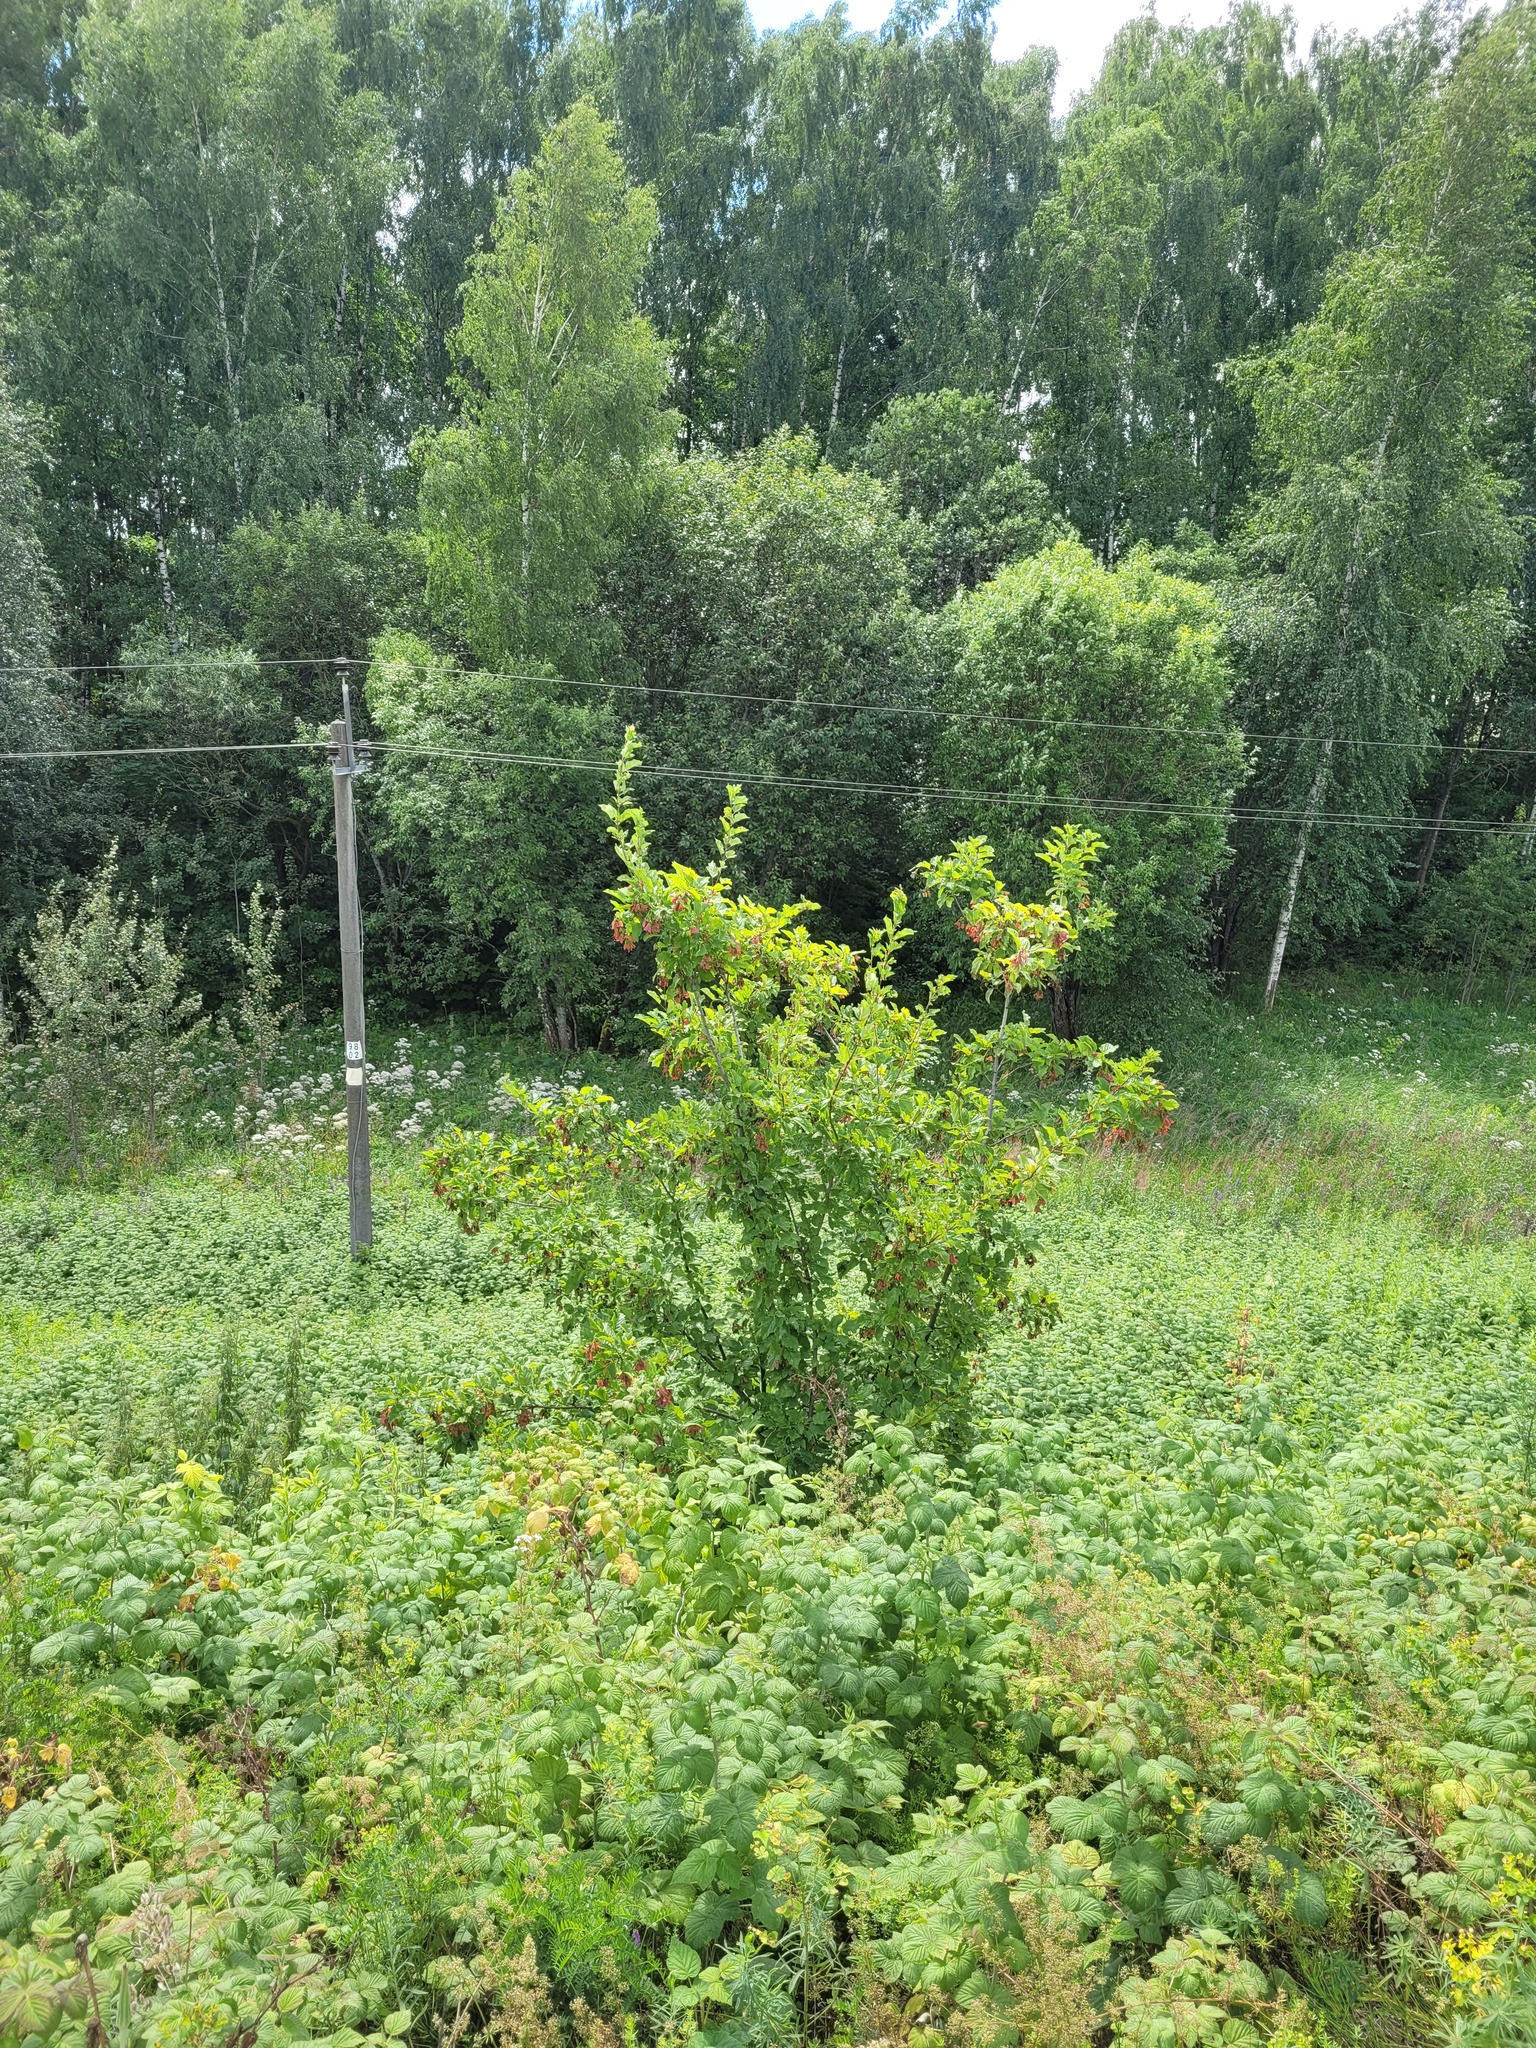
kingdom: Plantae
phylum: Tracheophyta
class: Magnoliopsida
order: Sapindales
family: Sapindaceae
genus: Acer
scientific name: Acer tataricum
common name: Tartar maple
